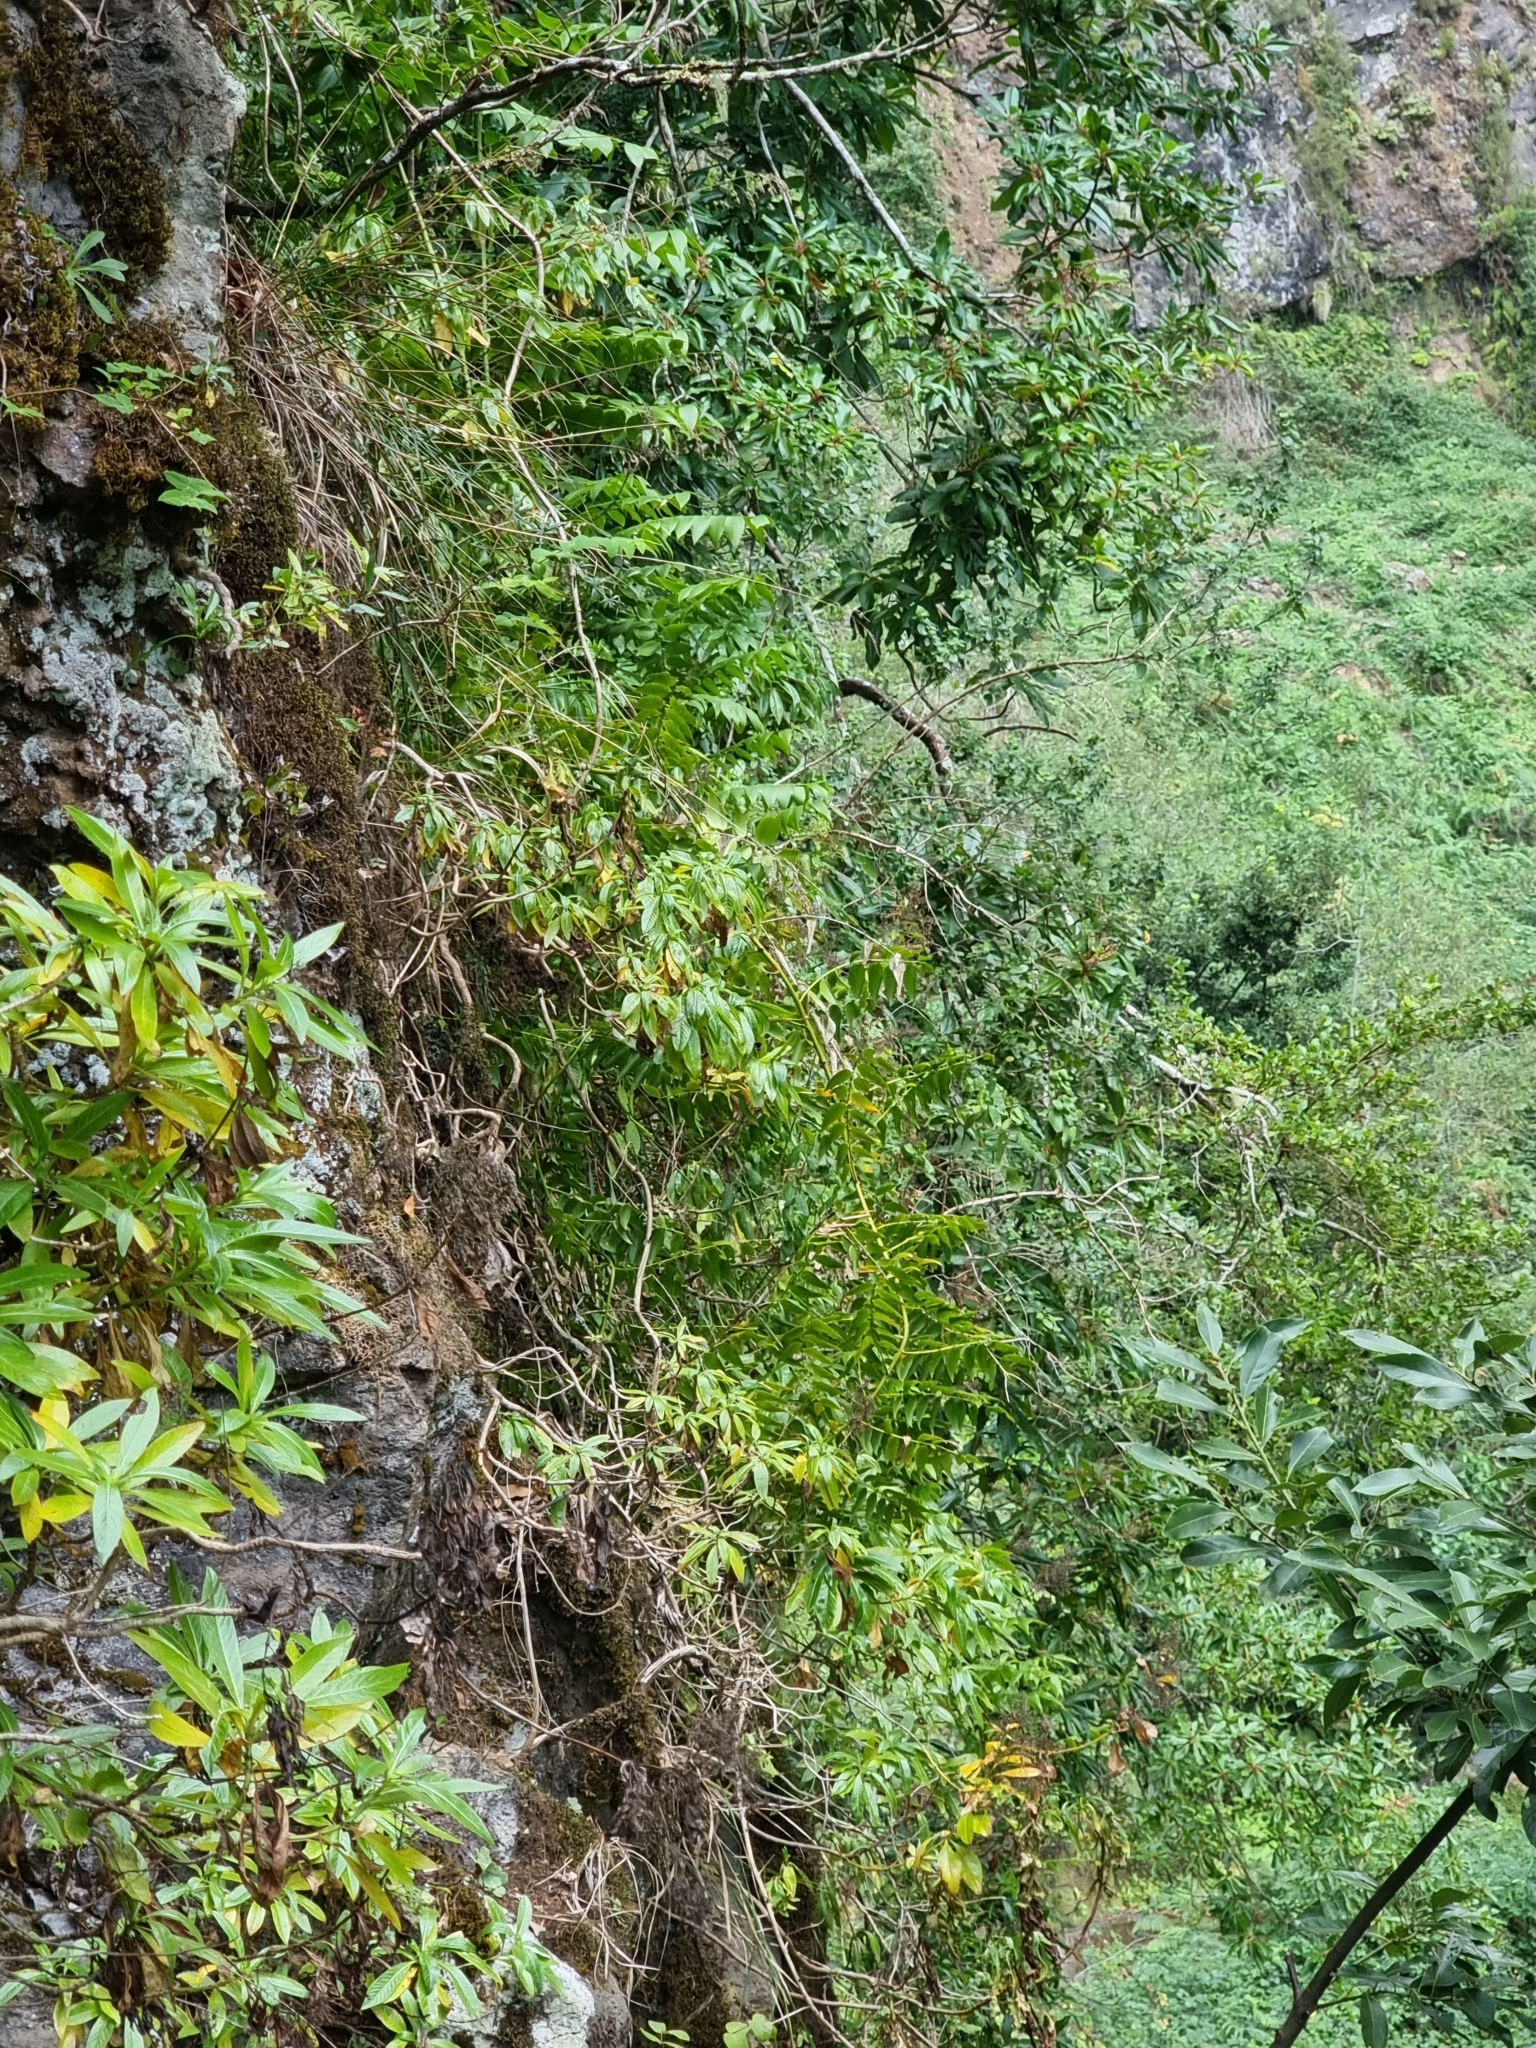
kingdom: Plantae
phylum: Tracheophyta
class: Liliopsida
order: Asparagales
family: Asparagaceae
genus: Semele
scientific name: Semele androgyna
